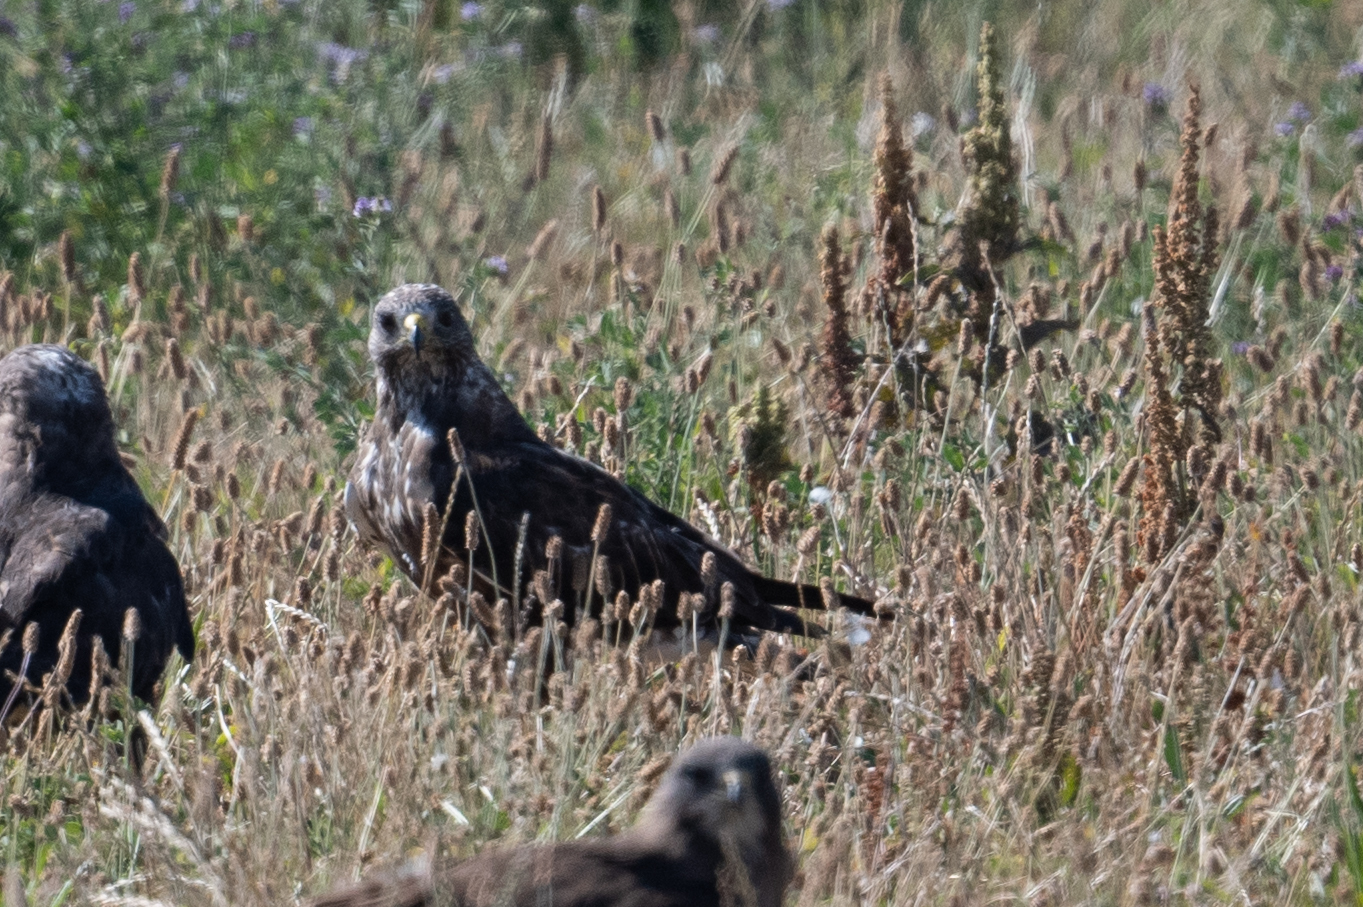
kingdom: Animalia
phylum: Chordata
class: Aves
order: Accipitriformes
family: Accipitridae
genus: Buteo
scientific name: Buteo swainsoni
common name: Swainson's hawk
